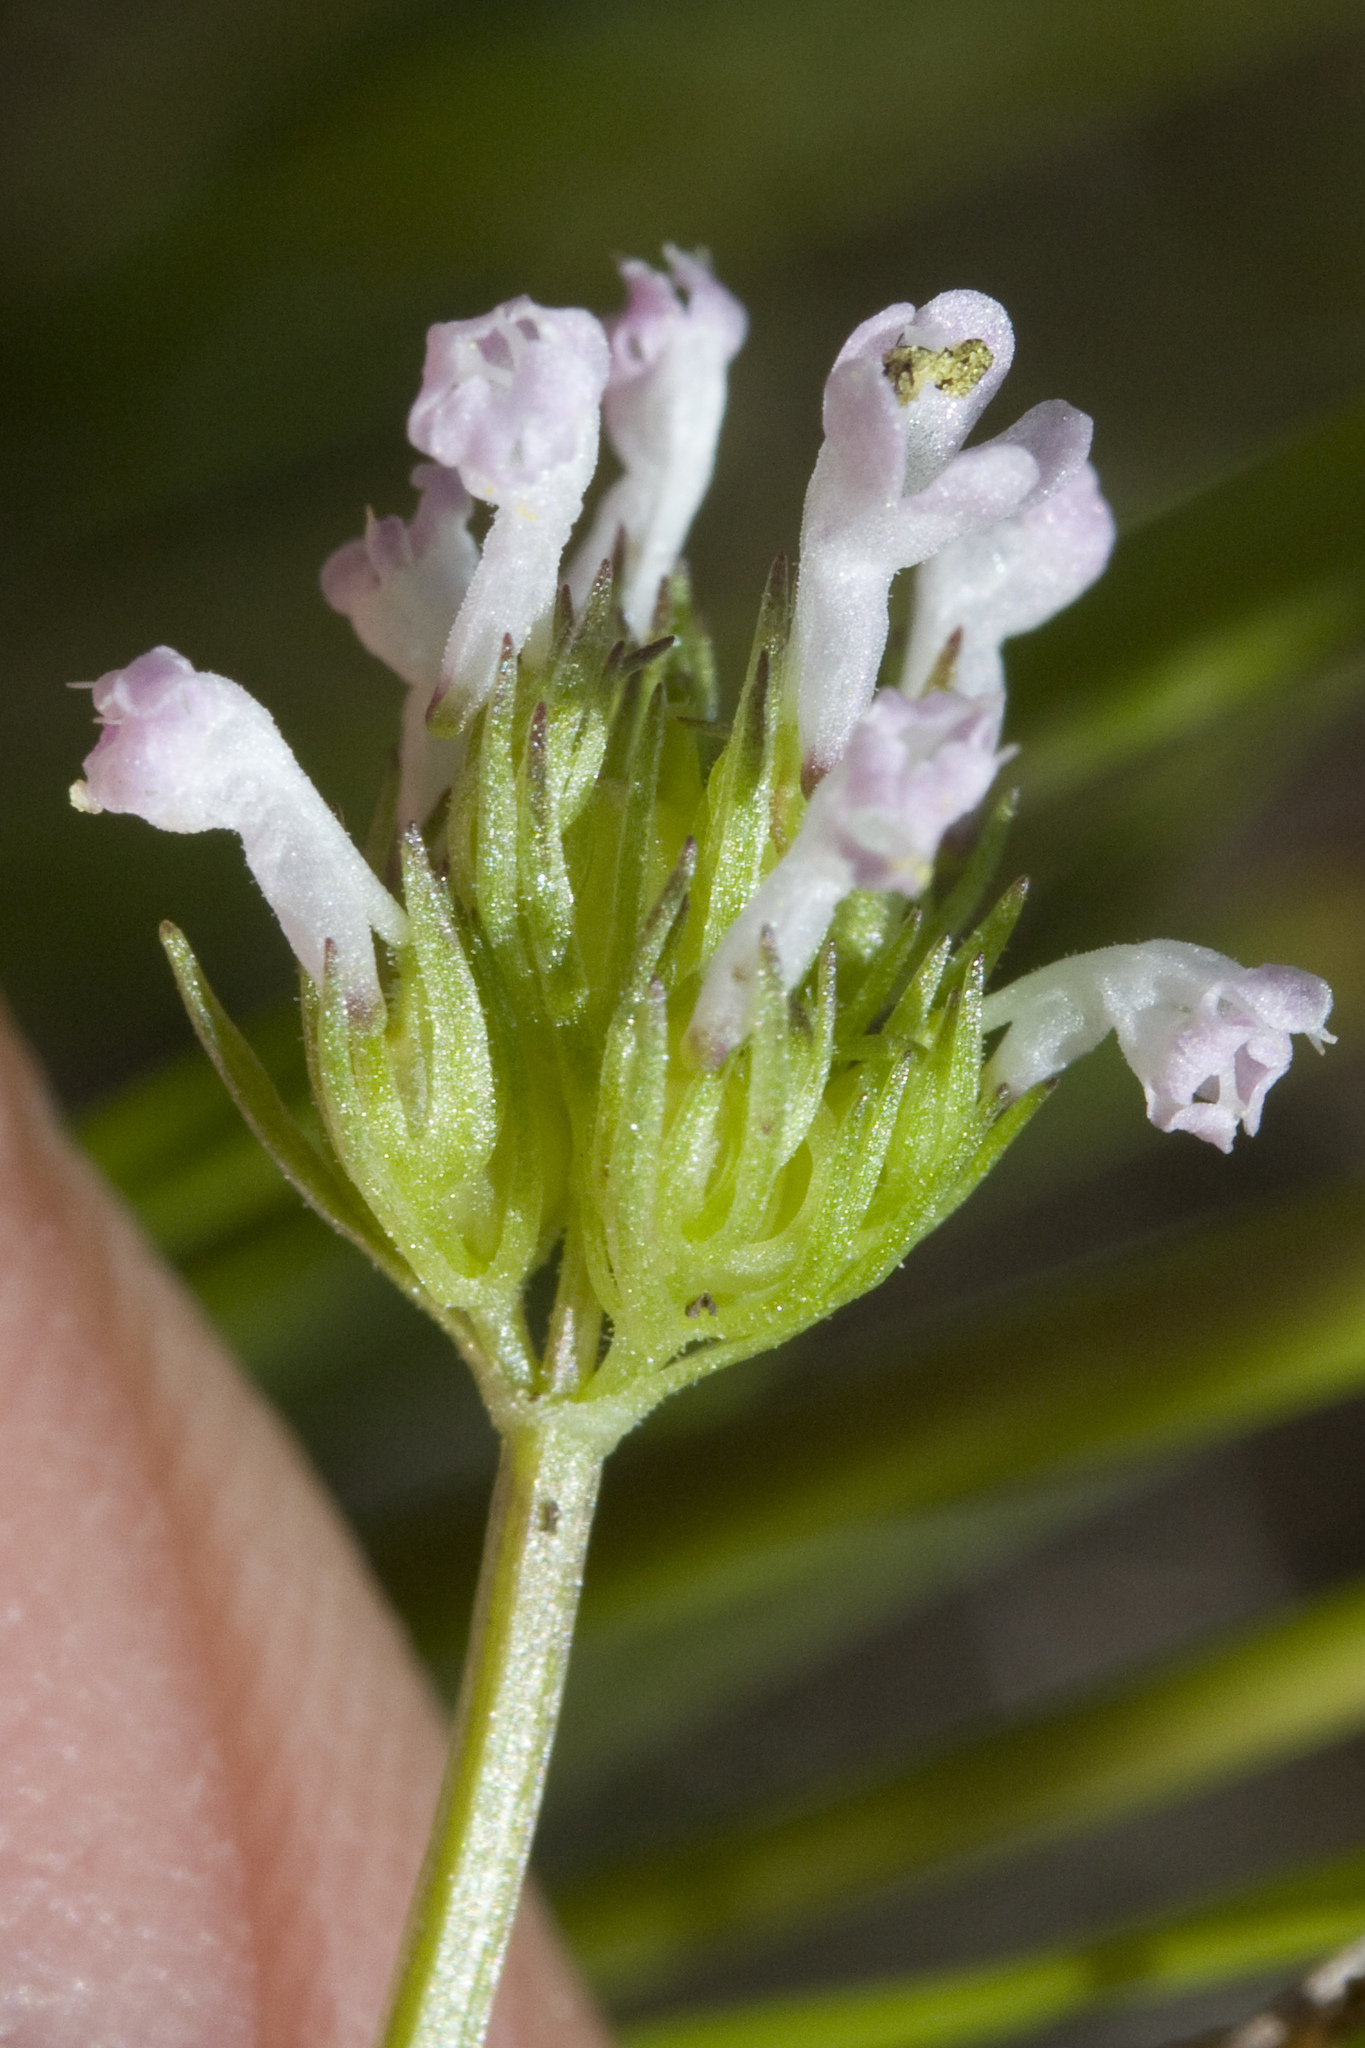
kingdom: Plantae
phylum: Tracheophyta
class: Magnoliopsida
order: Dipsacales
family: Caprifoliaceae
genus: Plectritis
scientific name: Plectritis macroptera
